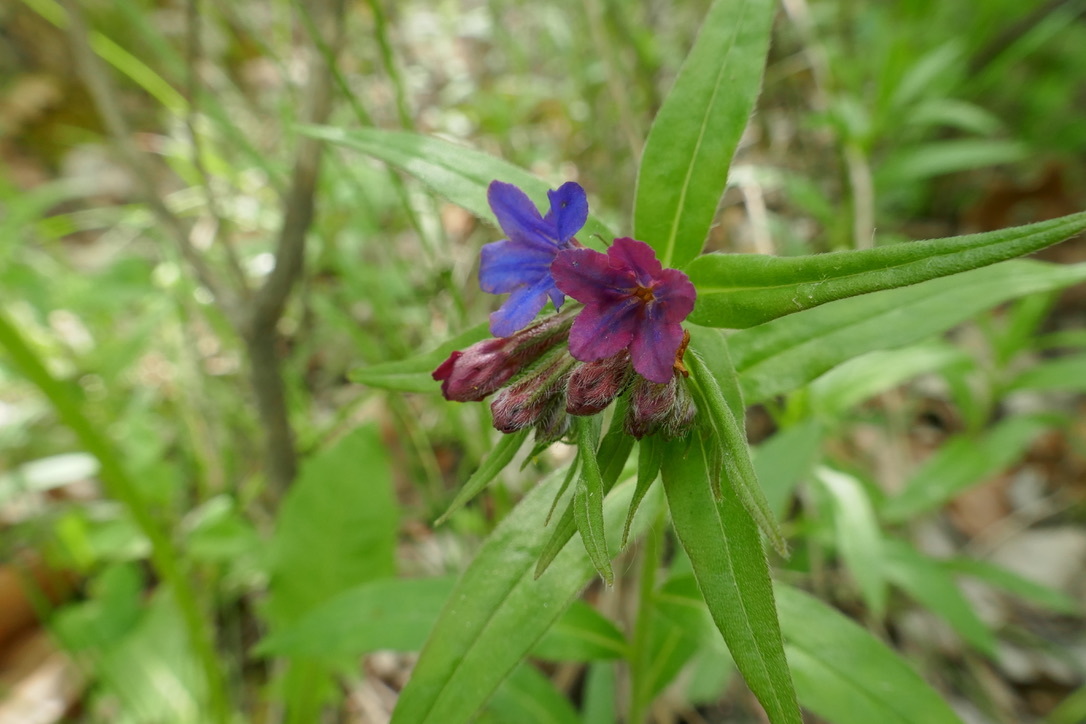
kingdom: Plantae
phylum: Tracheophyta
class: Magnoliopsida
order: Boraginales
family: Boraginaceae
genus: Aegonychon
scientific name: Aegonychon purpurocaeruleum
